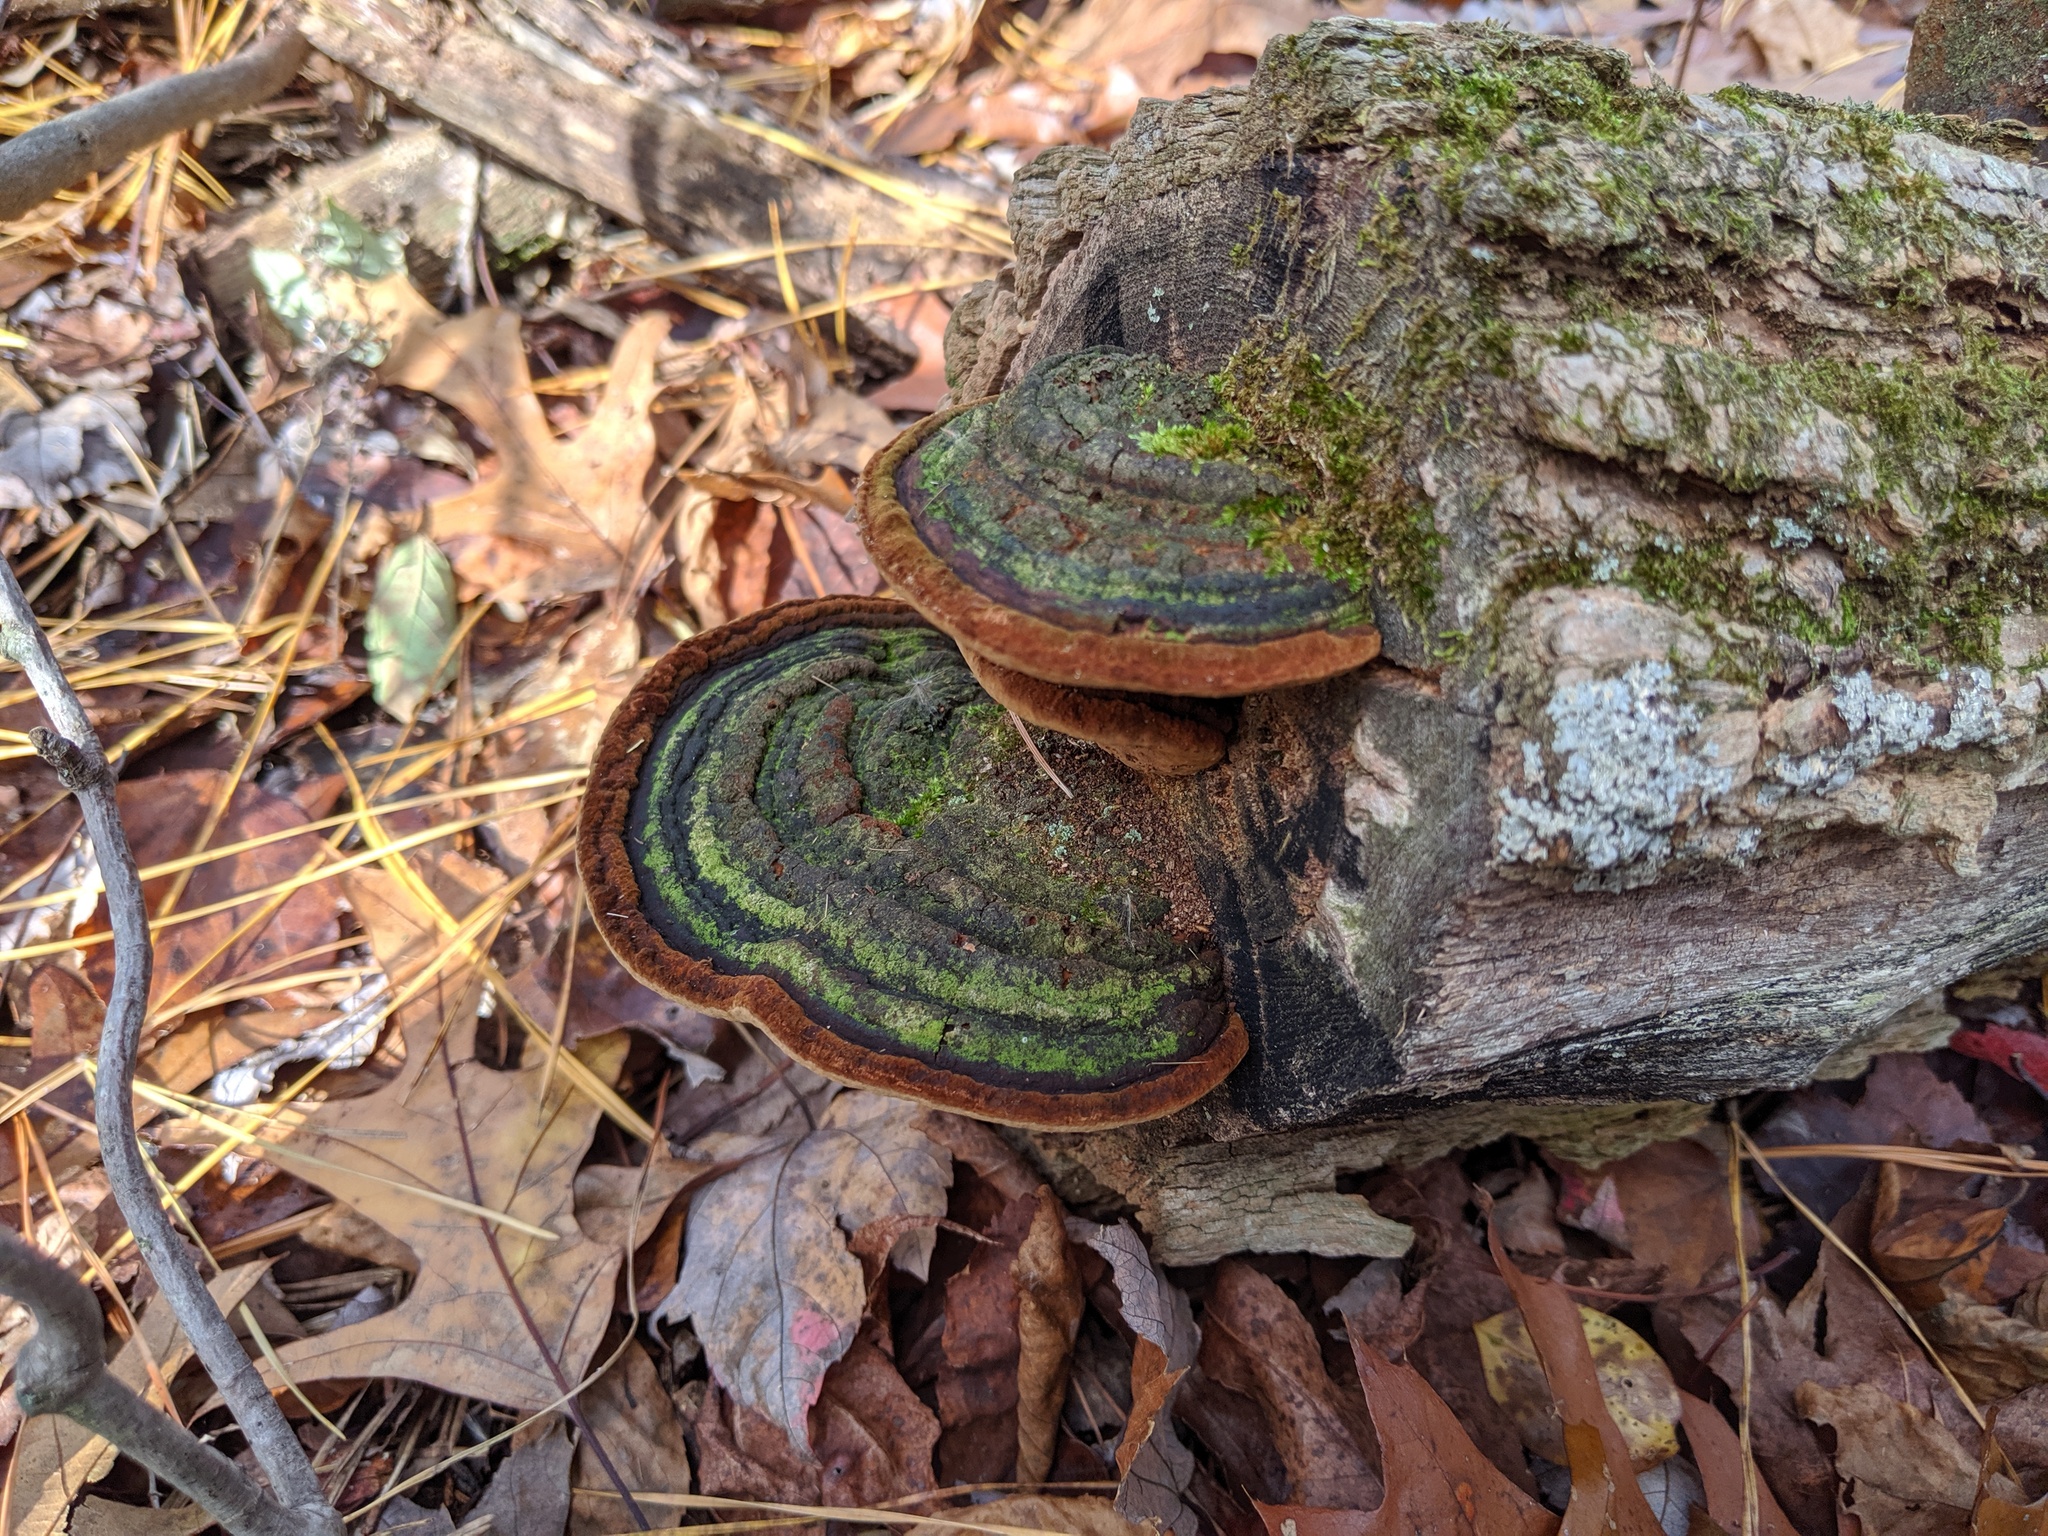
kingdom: Fungi
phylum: Basidiomycota
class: Agaricomycetes
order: Hymenochaetales
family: Hymenochaetaceae
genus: Phellinus
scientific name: Phellinus robiniae
